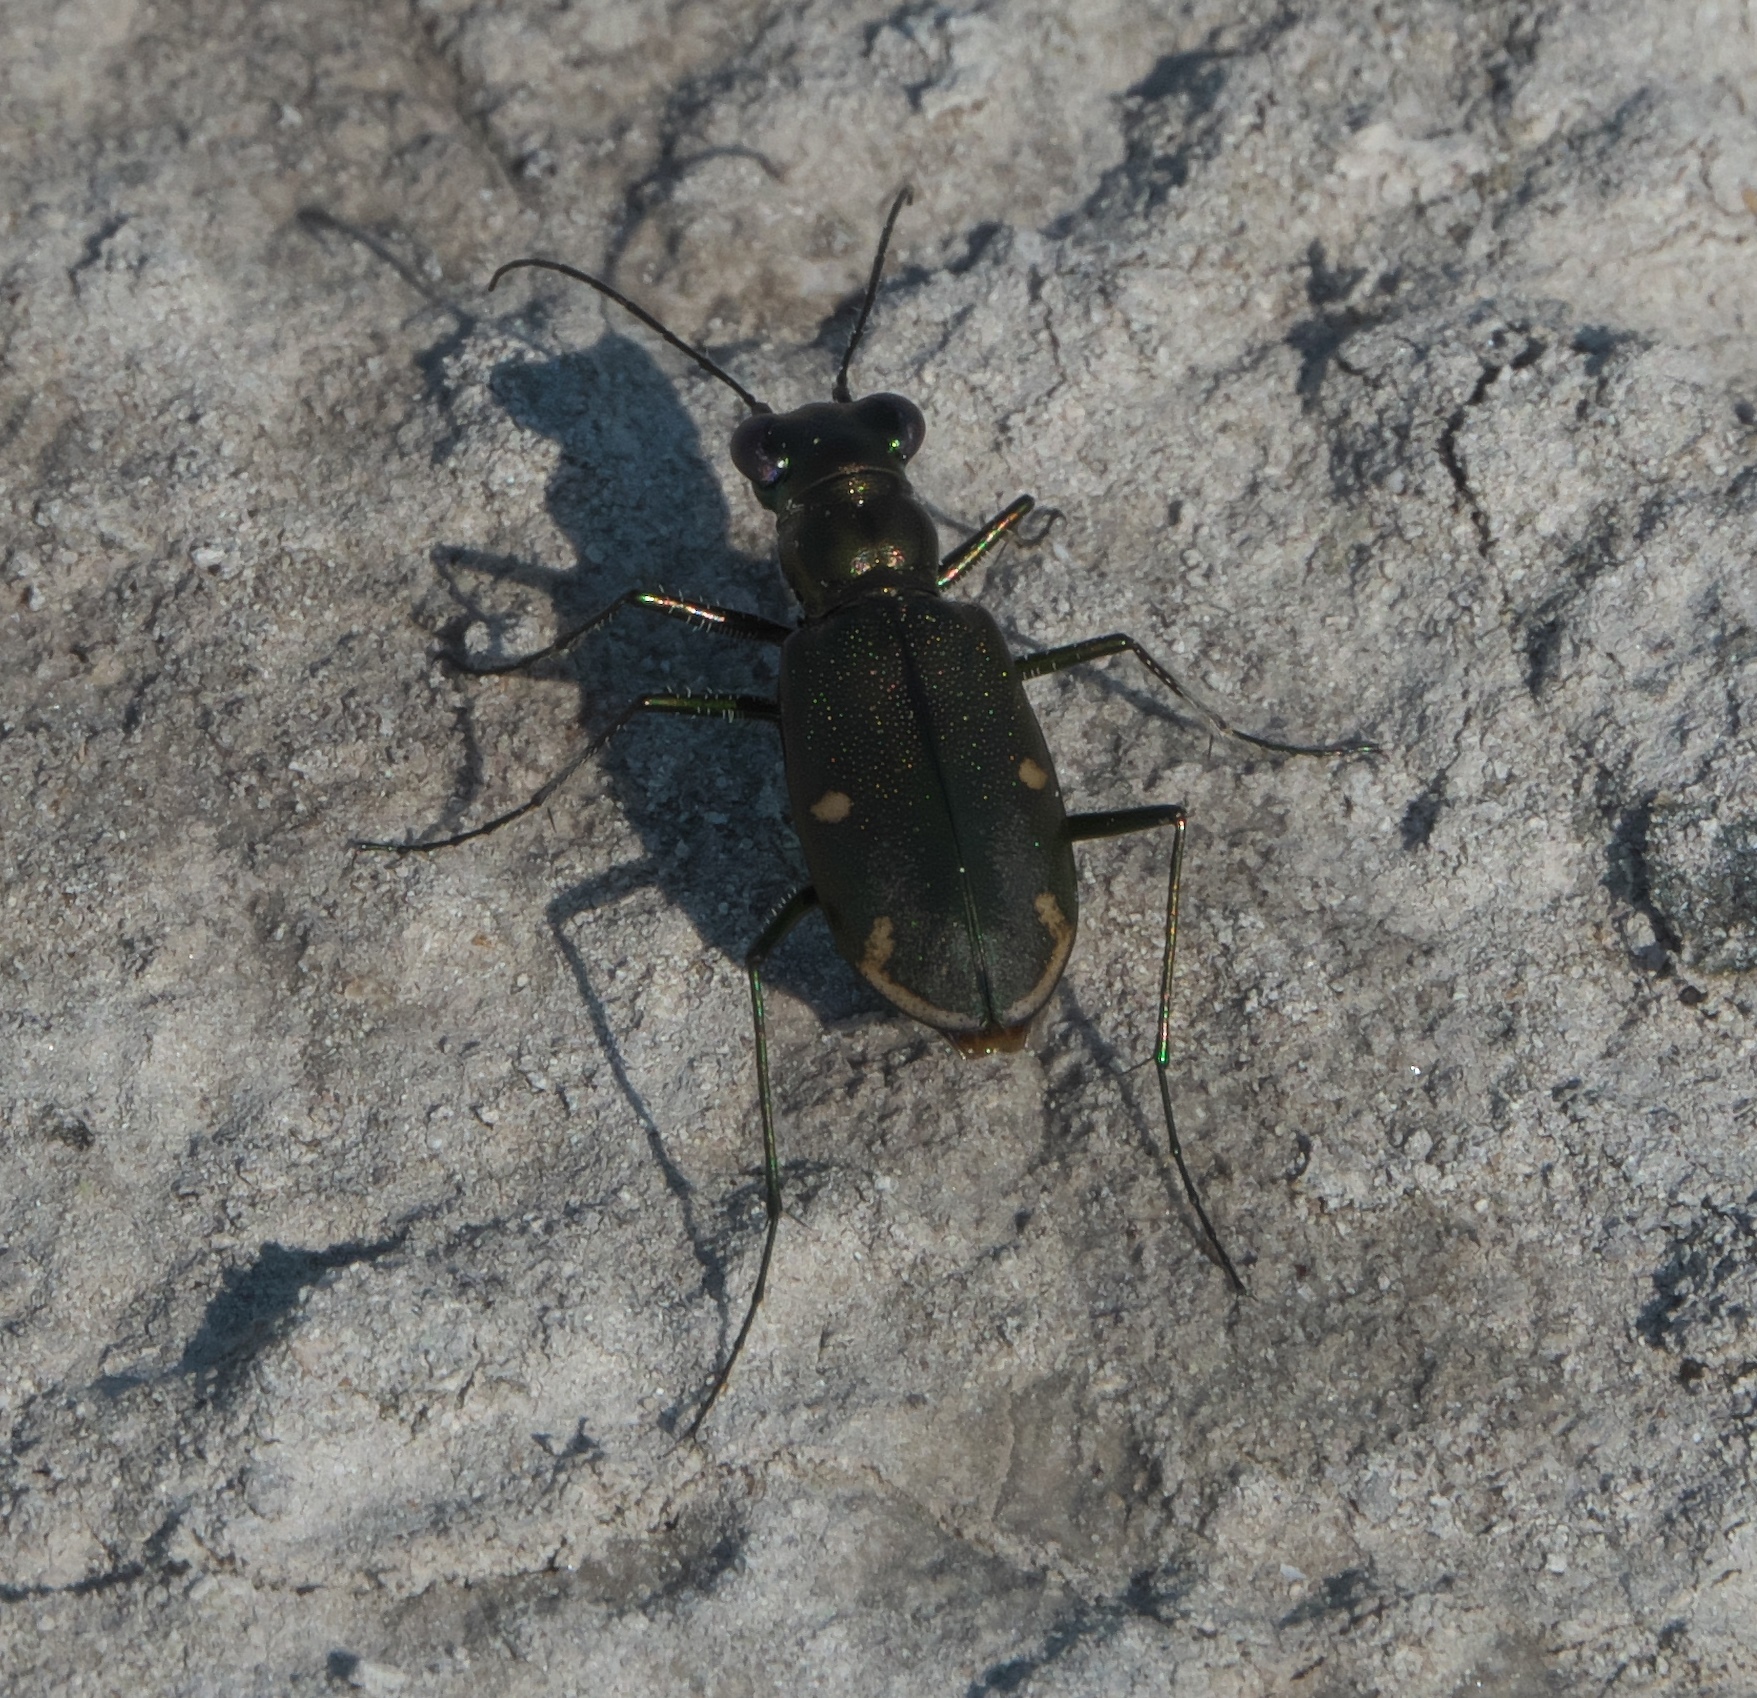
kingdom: Animalia
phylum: Arthropoda
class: Insecta
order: Coleoptera
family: Carabidae
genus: Eunota
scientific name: Eunota severa
